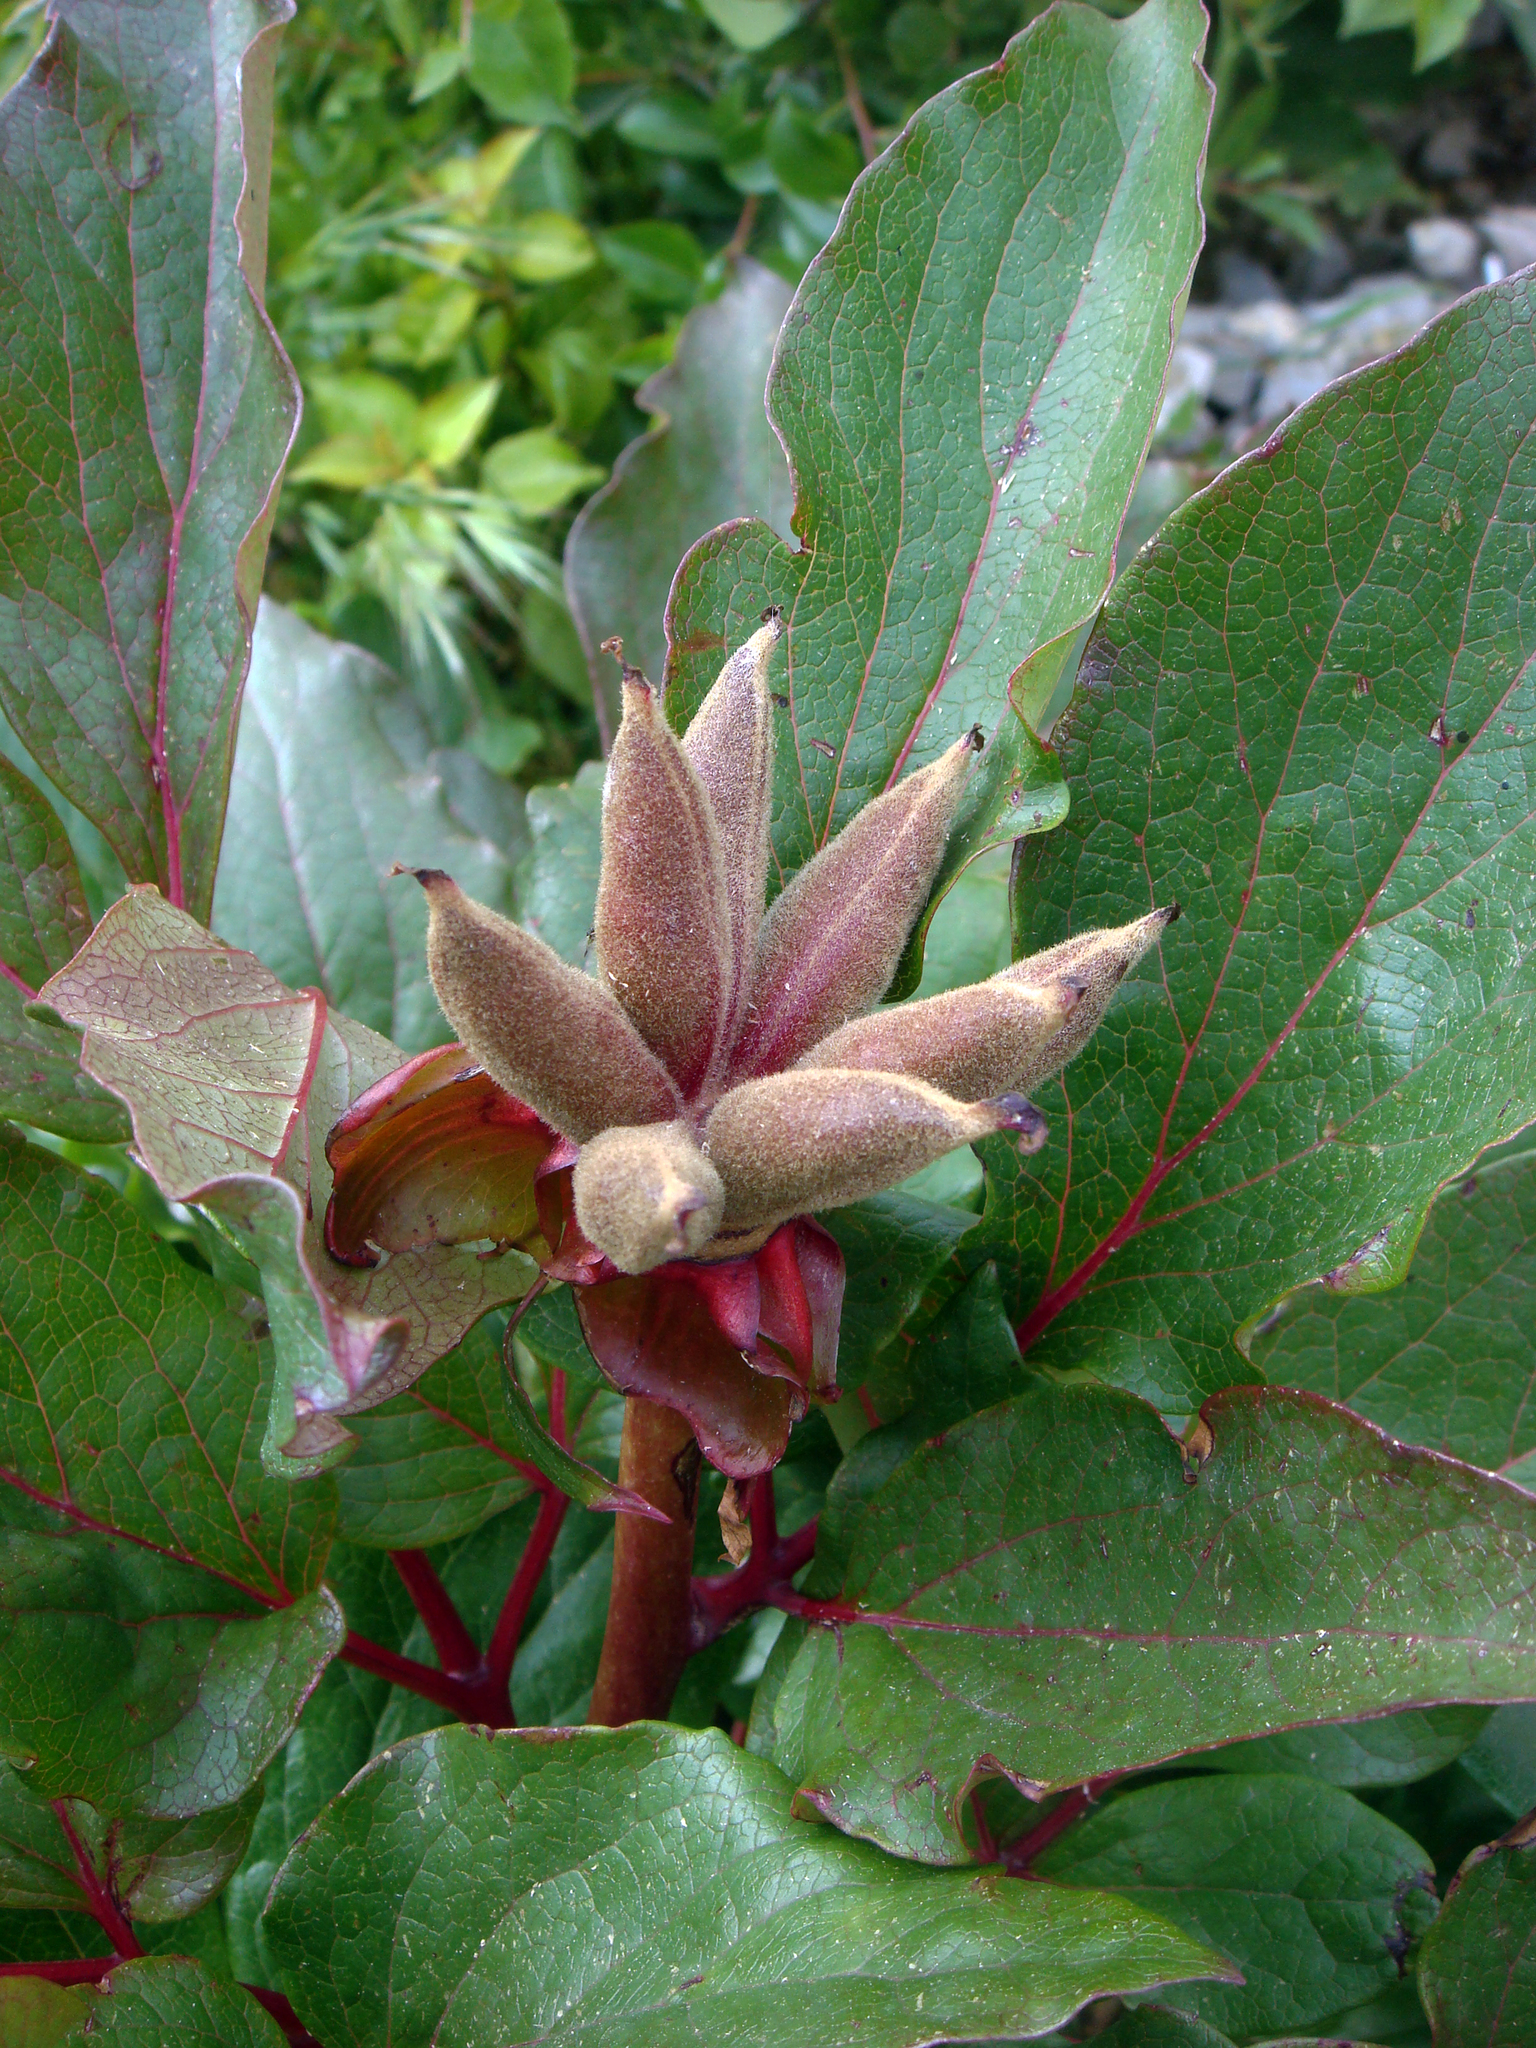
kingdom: Plantae
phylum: Tracheophyta
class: Magnoliopsida
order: Saxifragales
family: Paeoniaceae
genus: Paeonia
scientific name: Paeonia corsica
